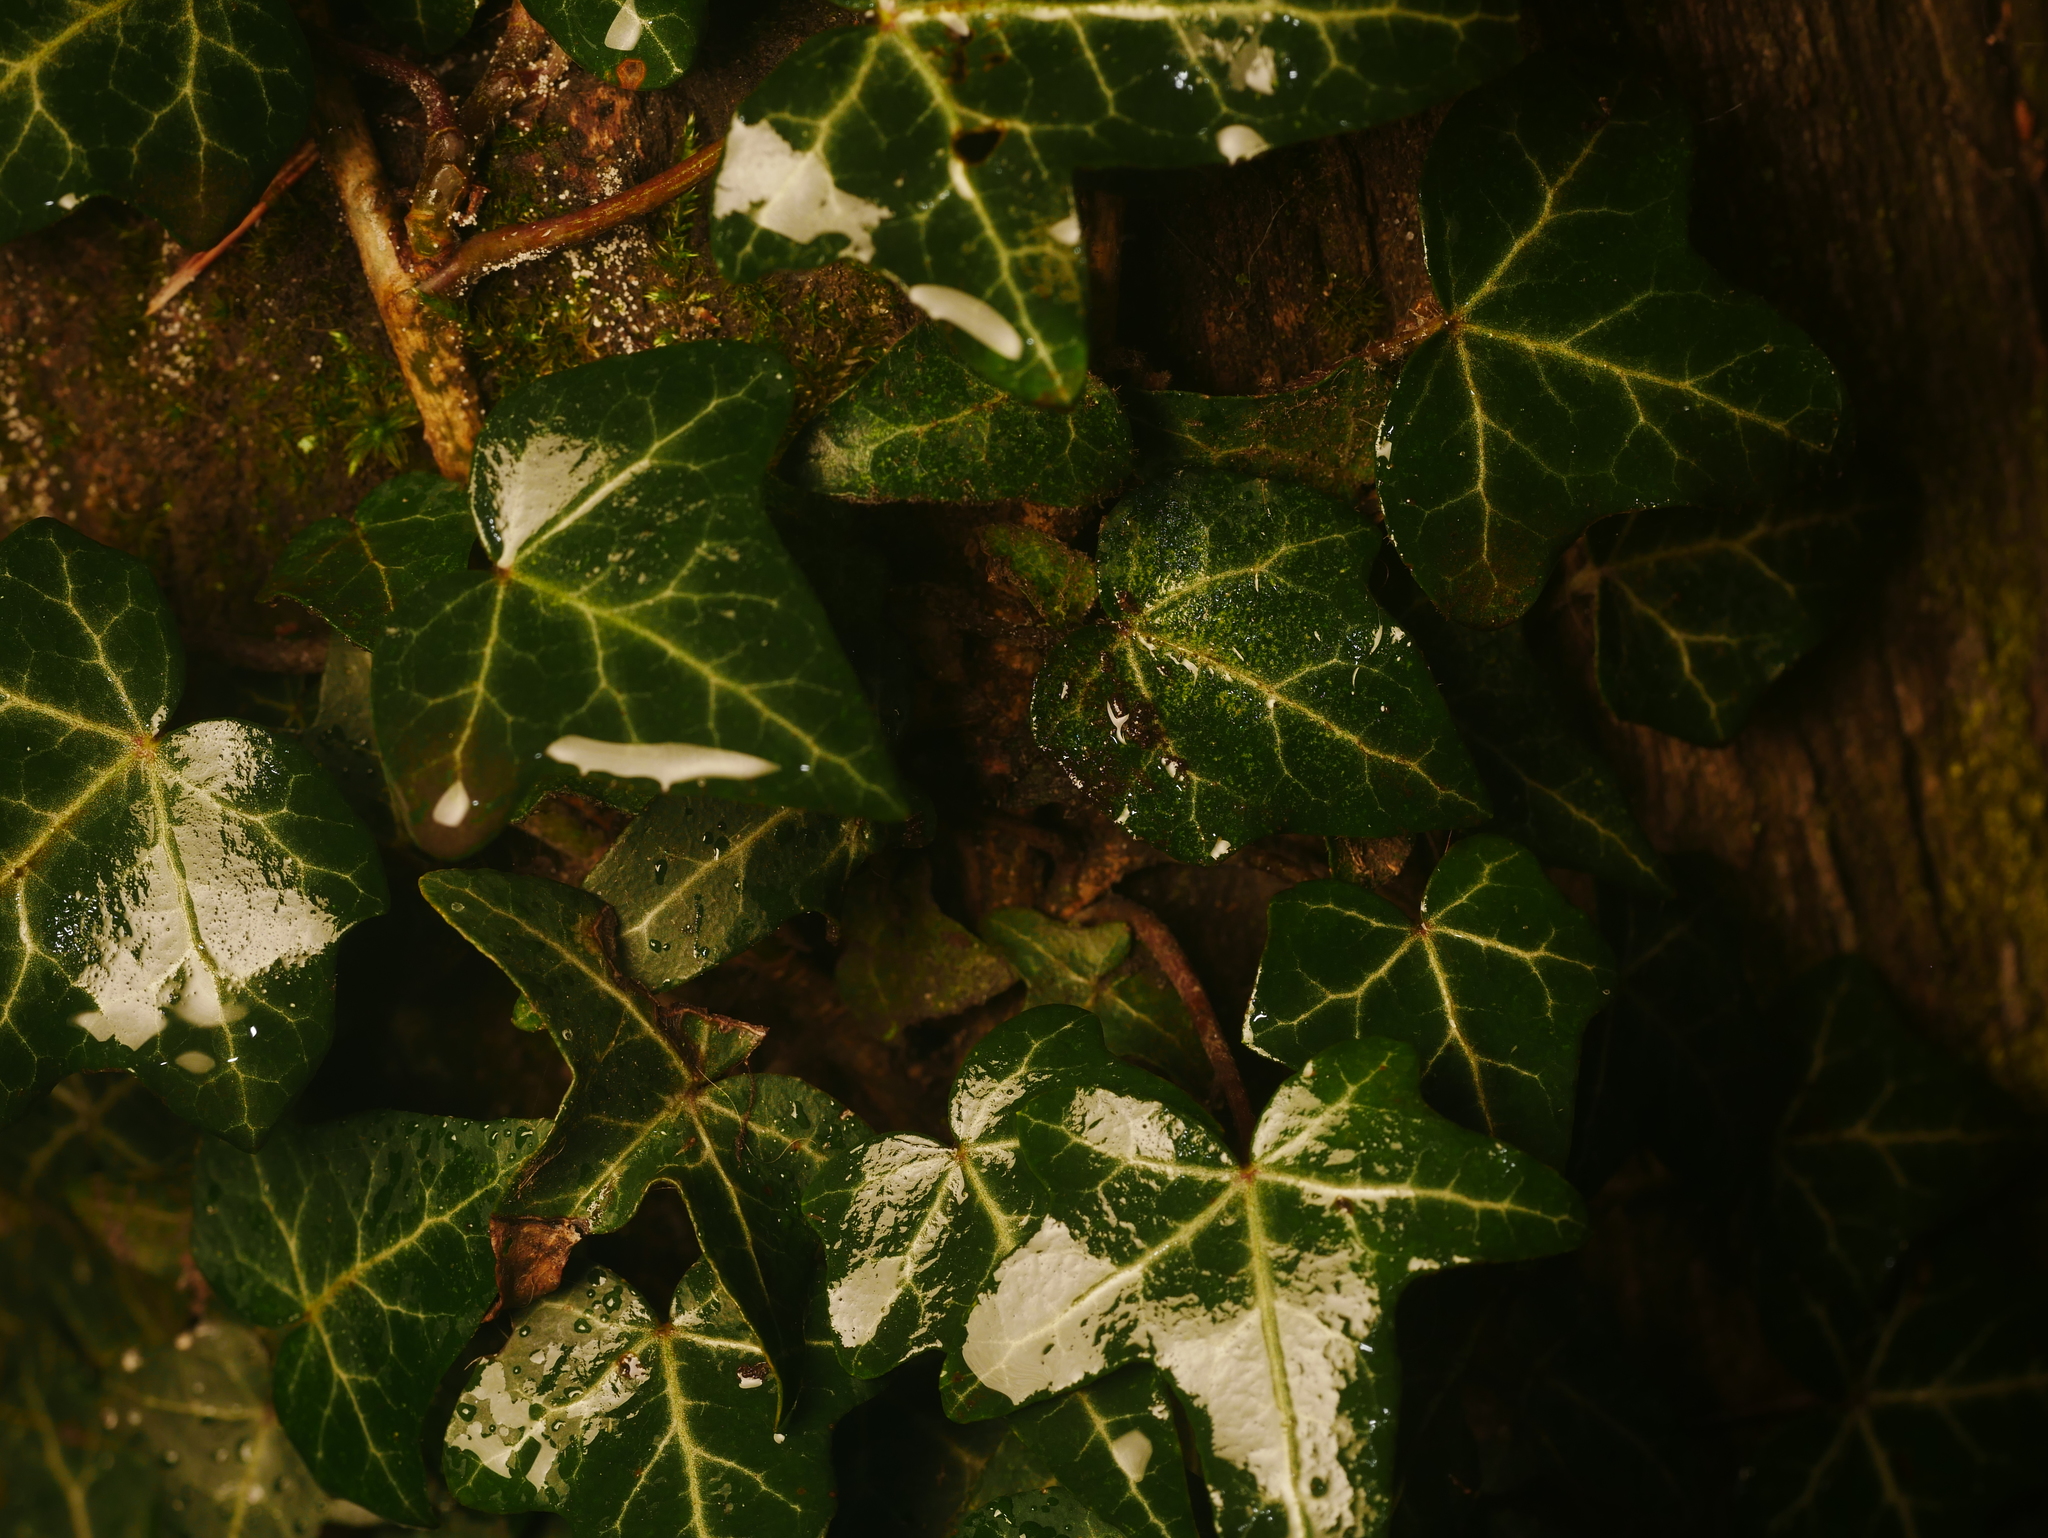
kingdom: Plantae
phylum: Tracheophyta
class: Magnoliopsida
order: Apiales
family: Araliaceae
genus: Hedera
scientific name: Hedera helix
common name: Ivy
